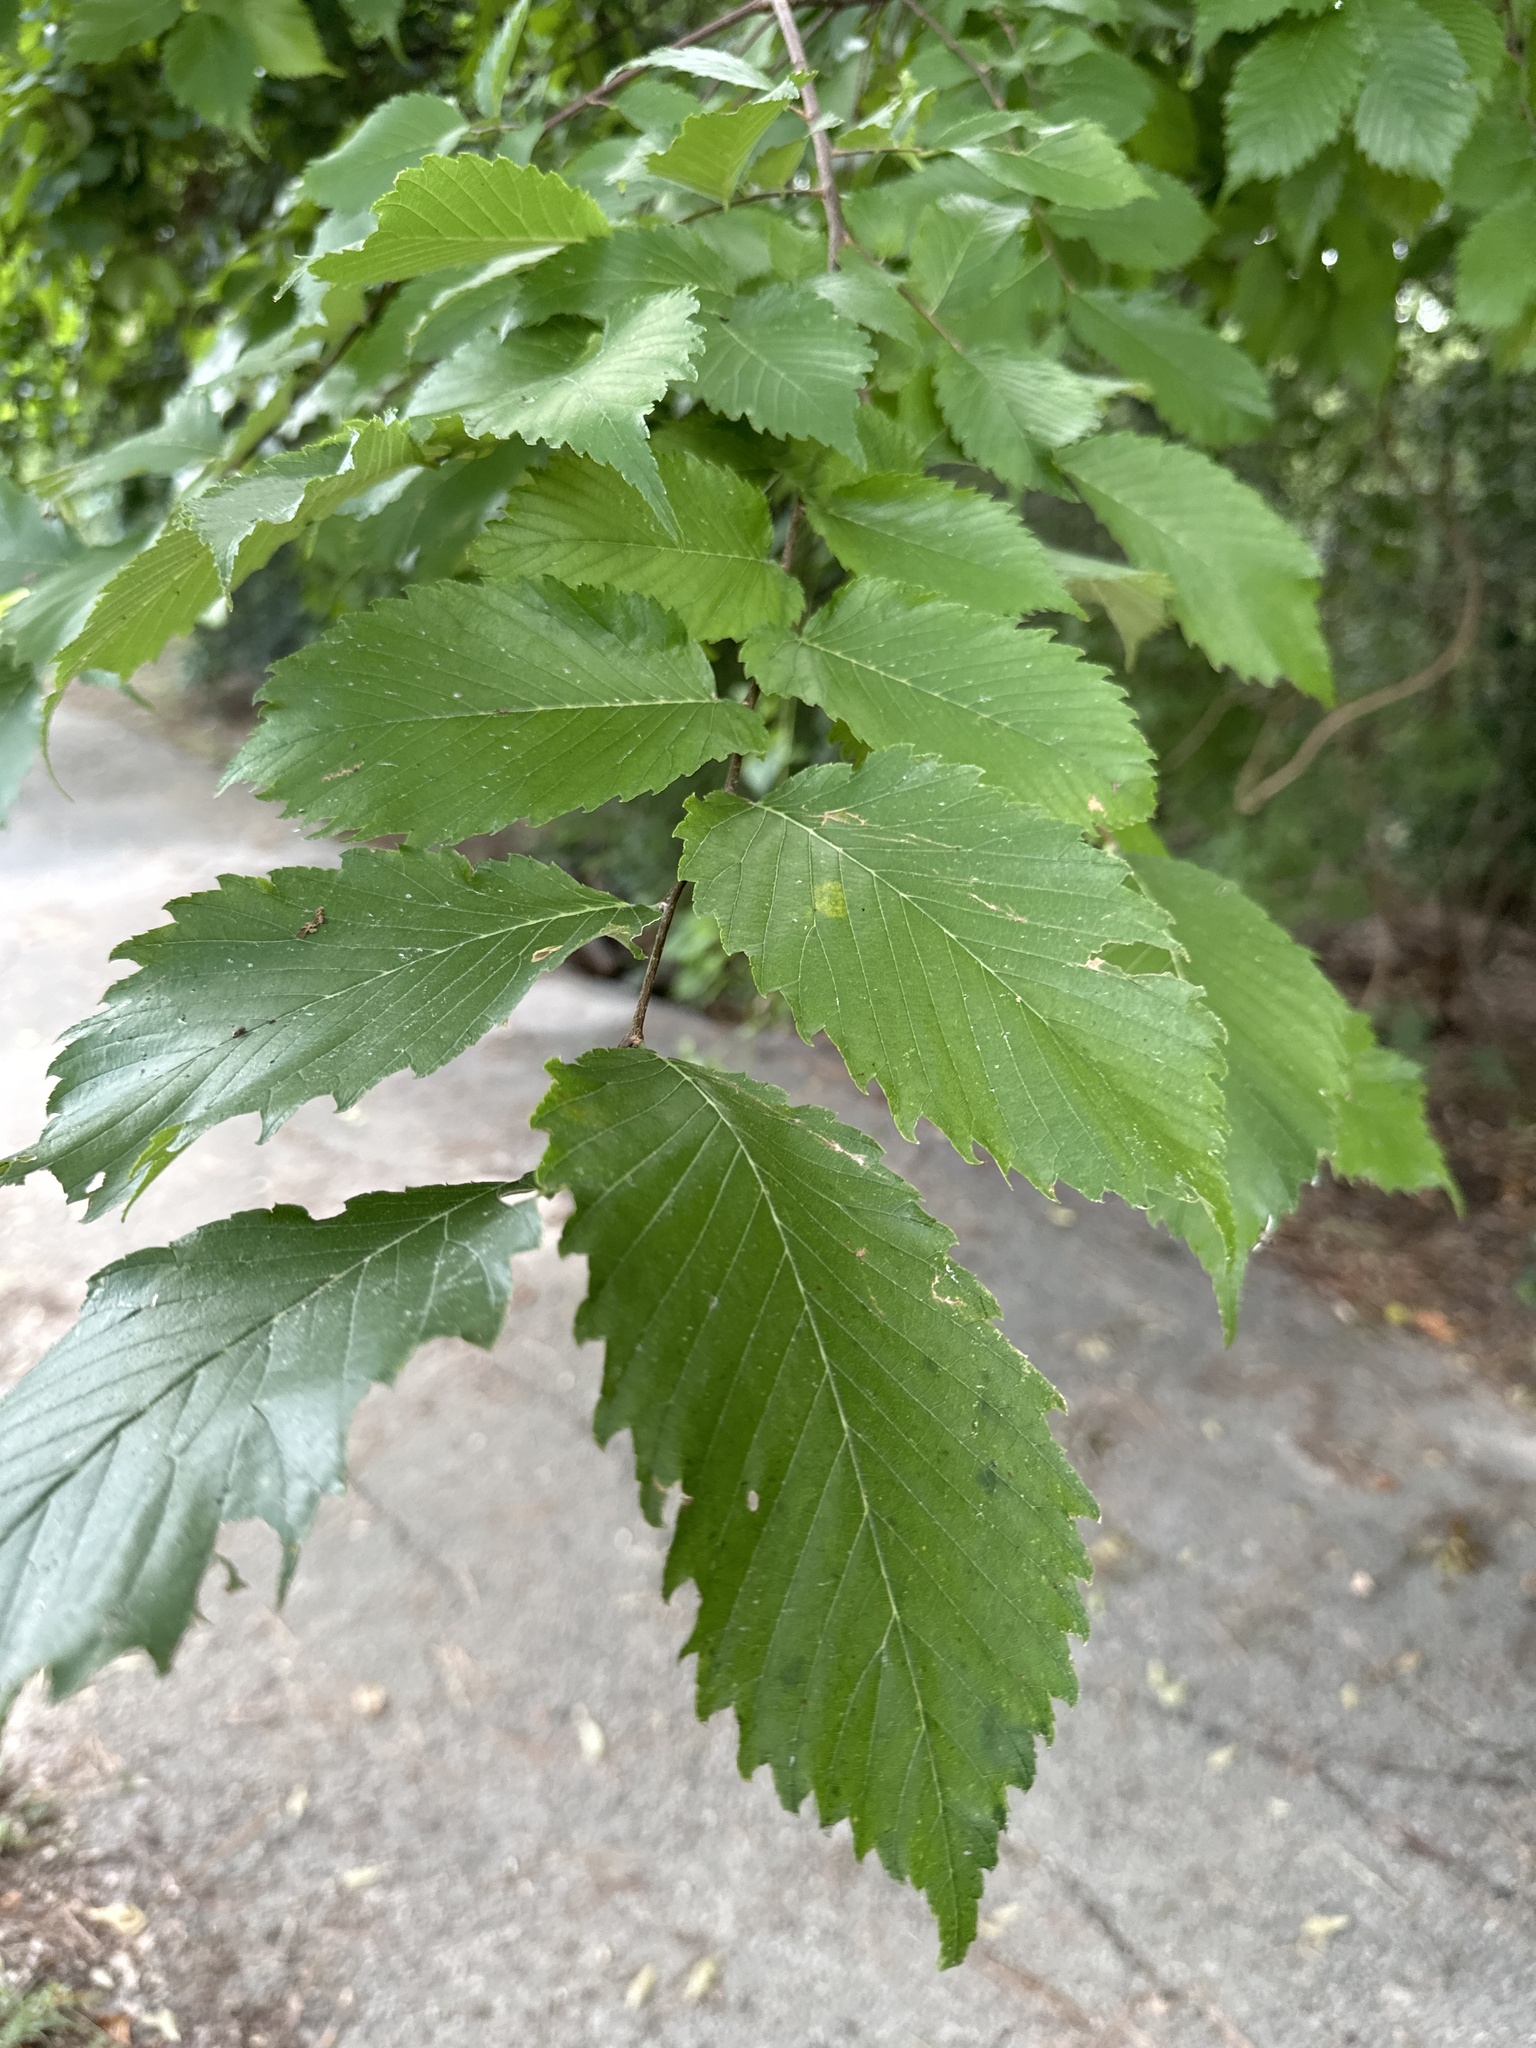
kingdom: Plantae
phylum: Tracheophyta
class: Magnoliopsida
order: Rosales
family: Ulmaceae
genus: Ulmus
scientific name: Ulmus americana
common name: American elm
